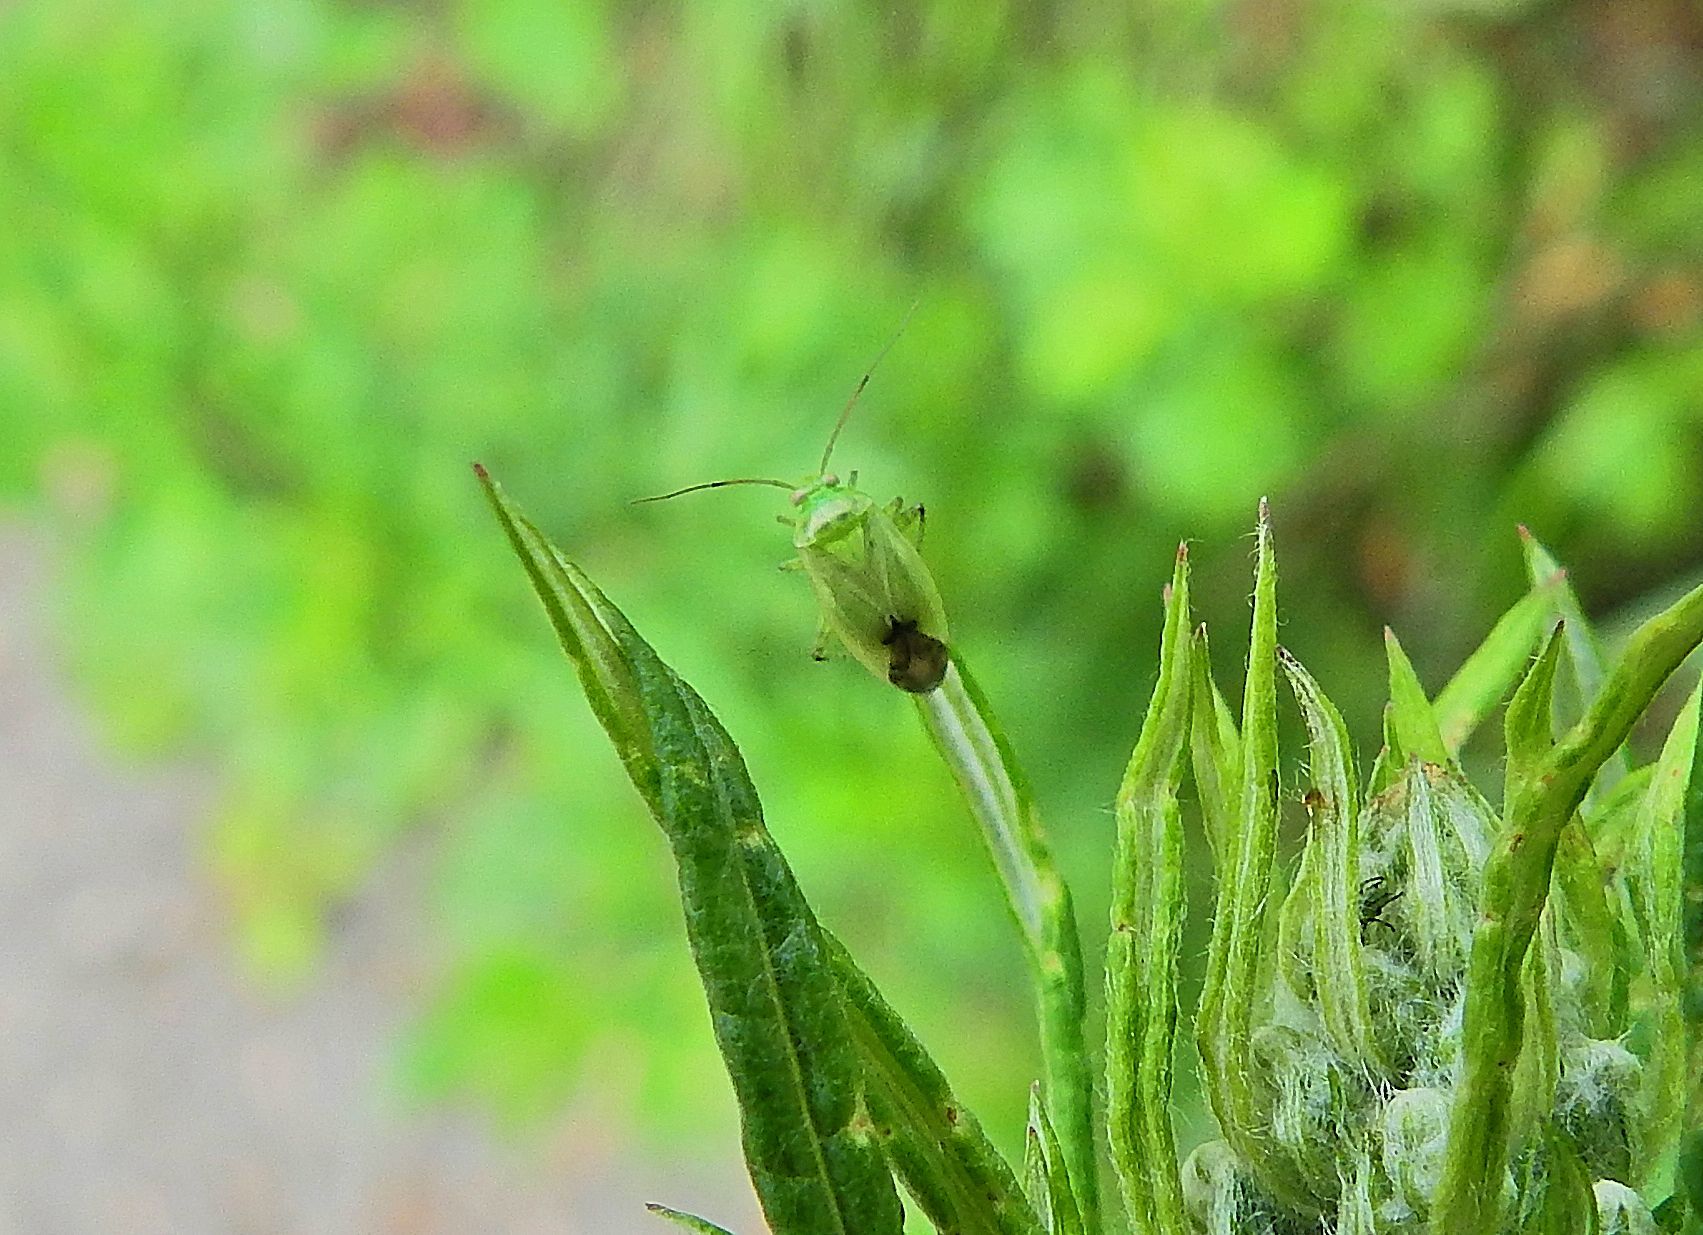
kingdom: Animalia
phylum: Arthropoda
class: Insecta
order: Hemiptera
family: Miridae
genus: Apolygus
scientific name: Apolygus lucorum
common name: Plant bug
